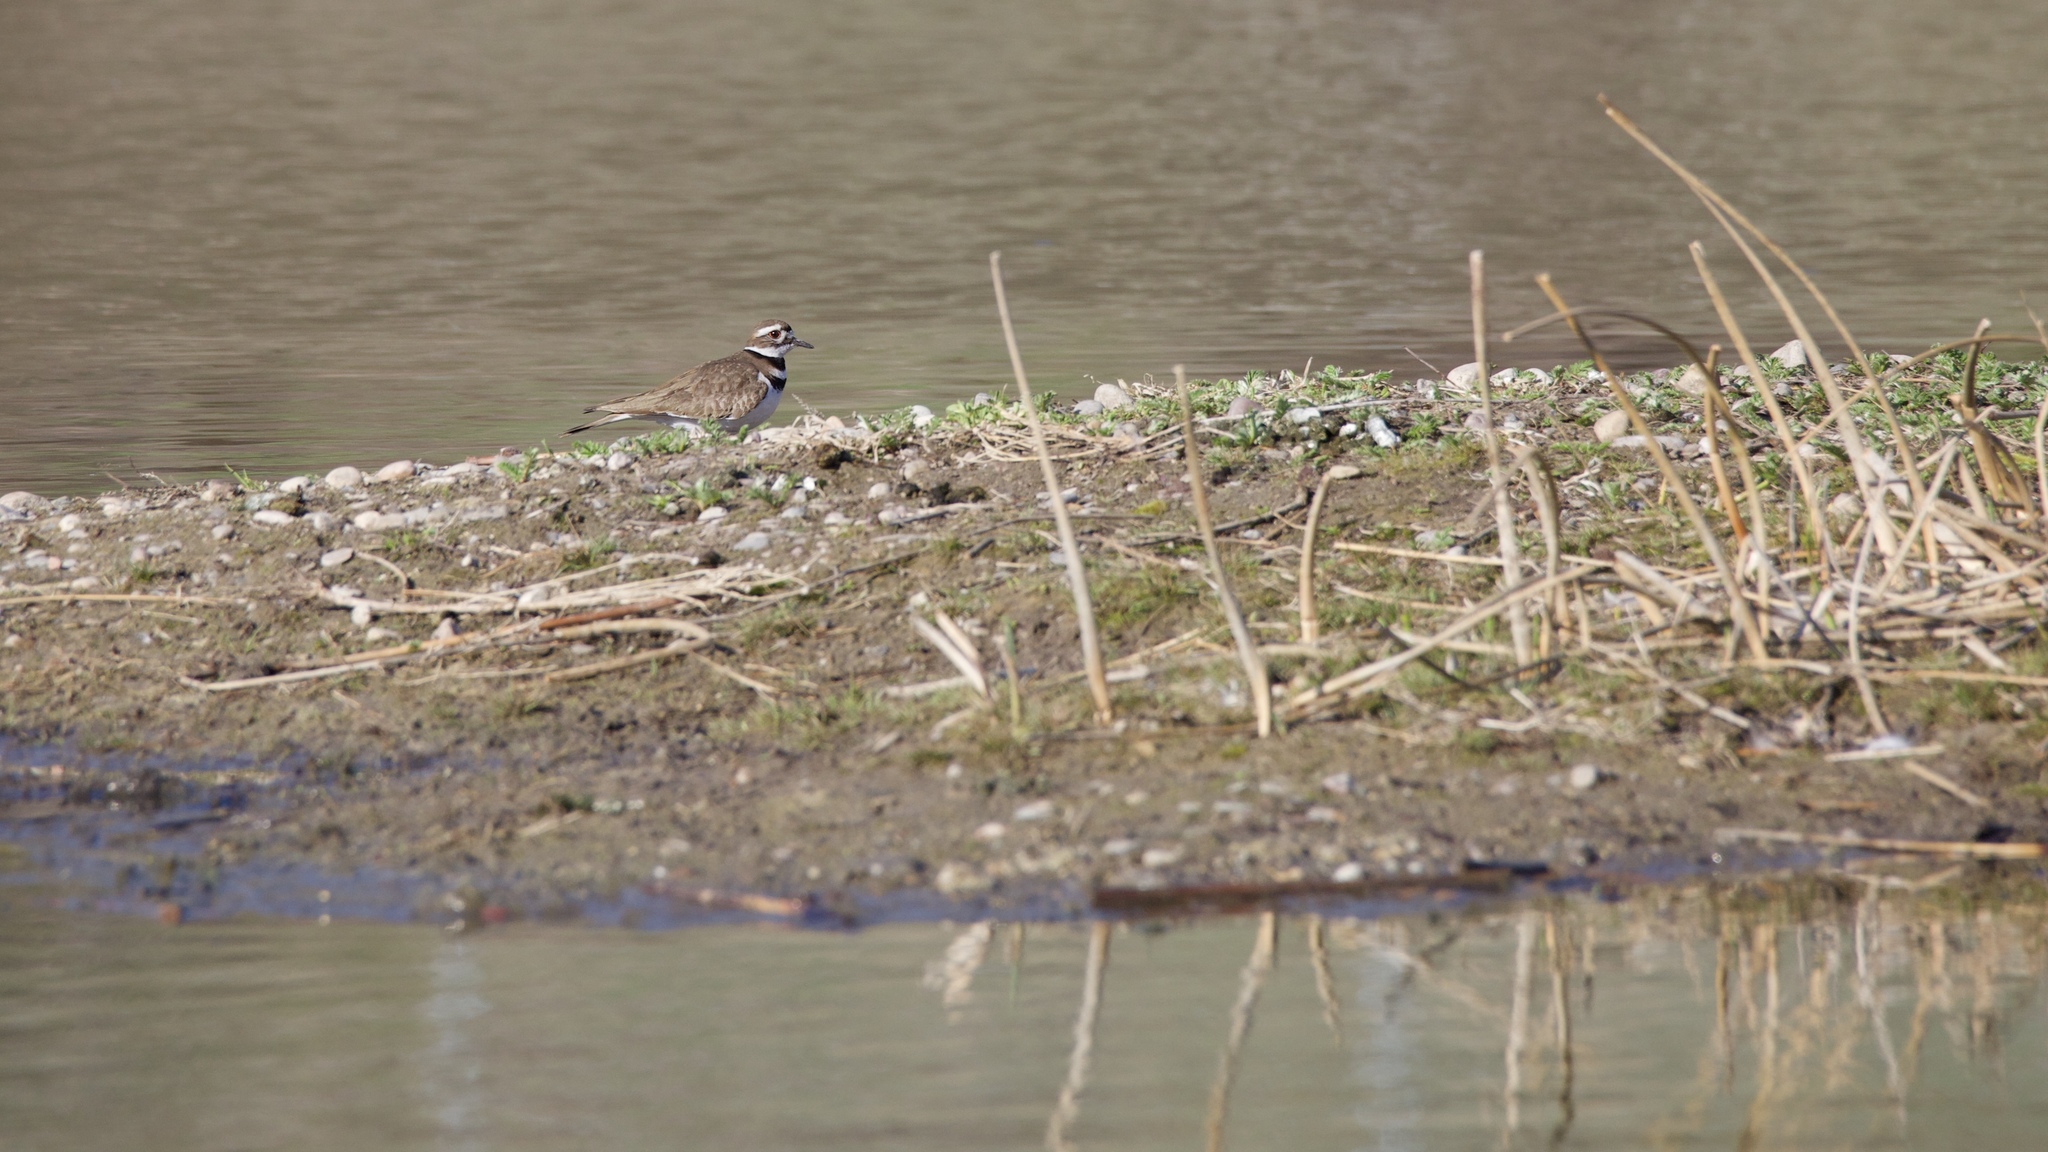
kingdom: Animalia
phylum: Chordata
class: Aves
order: Charadriiformes
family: Charadriidae
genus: Charadrius
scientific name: Charadrius vociferus
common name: Killdeer
